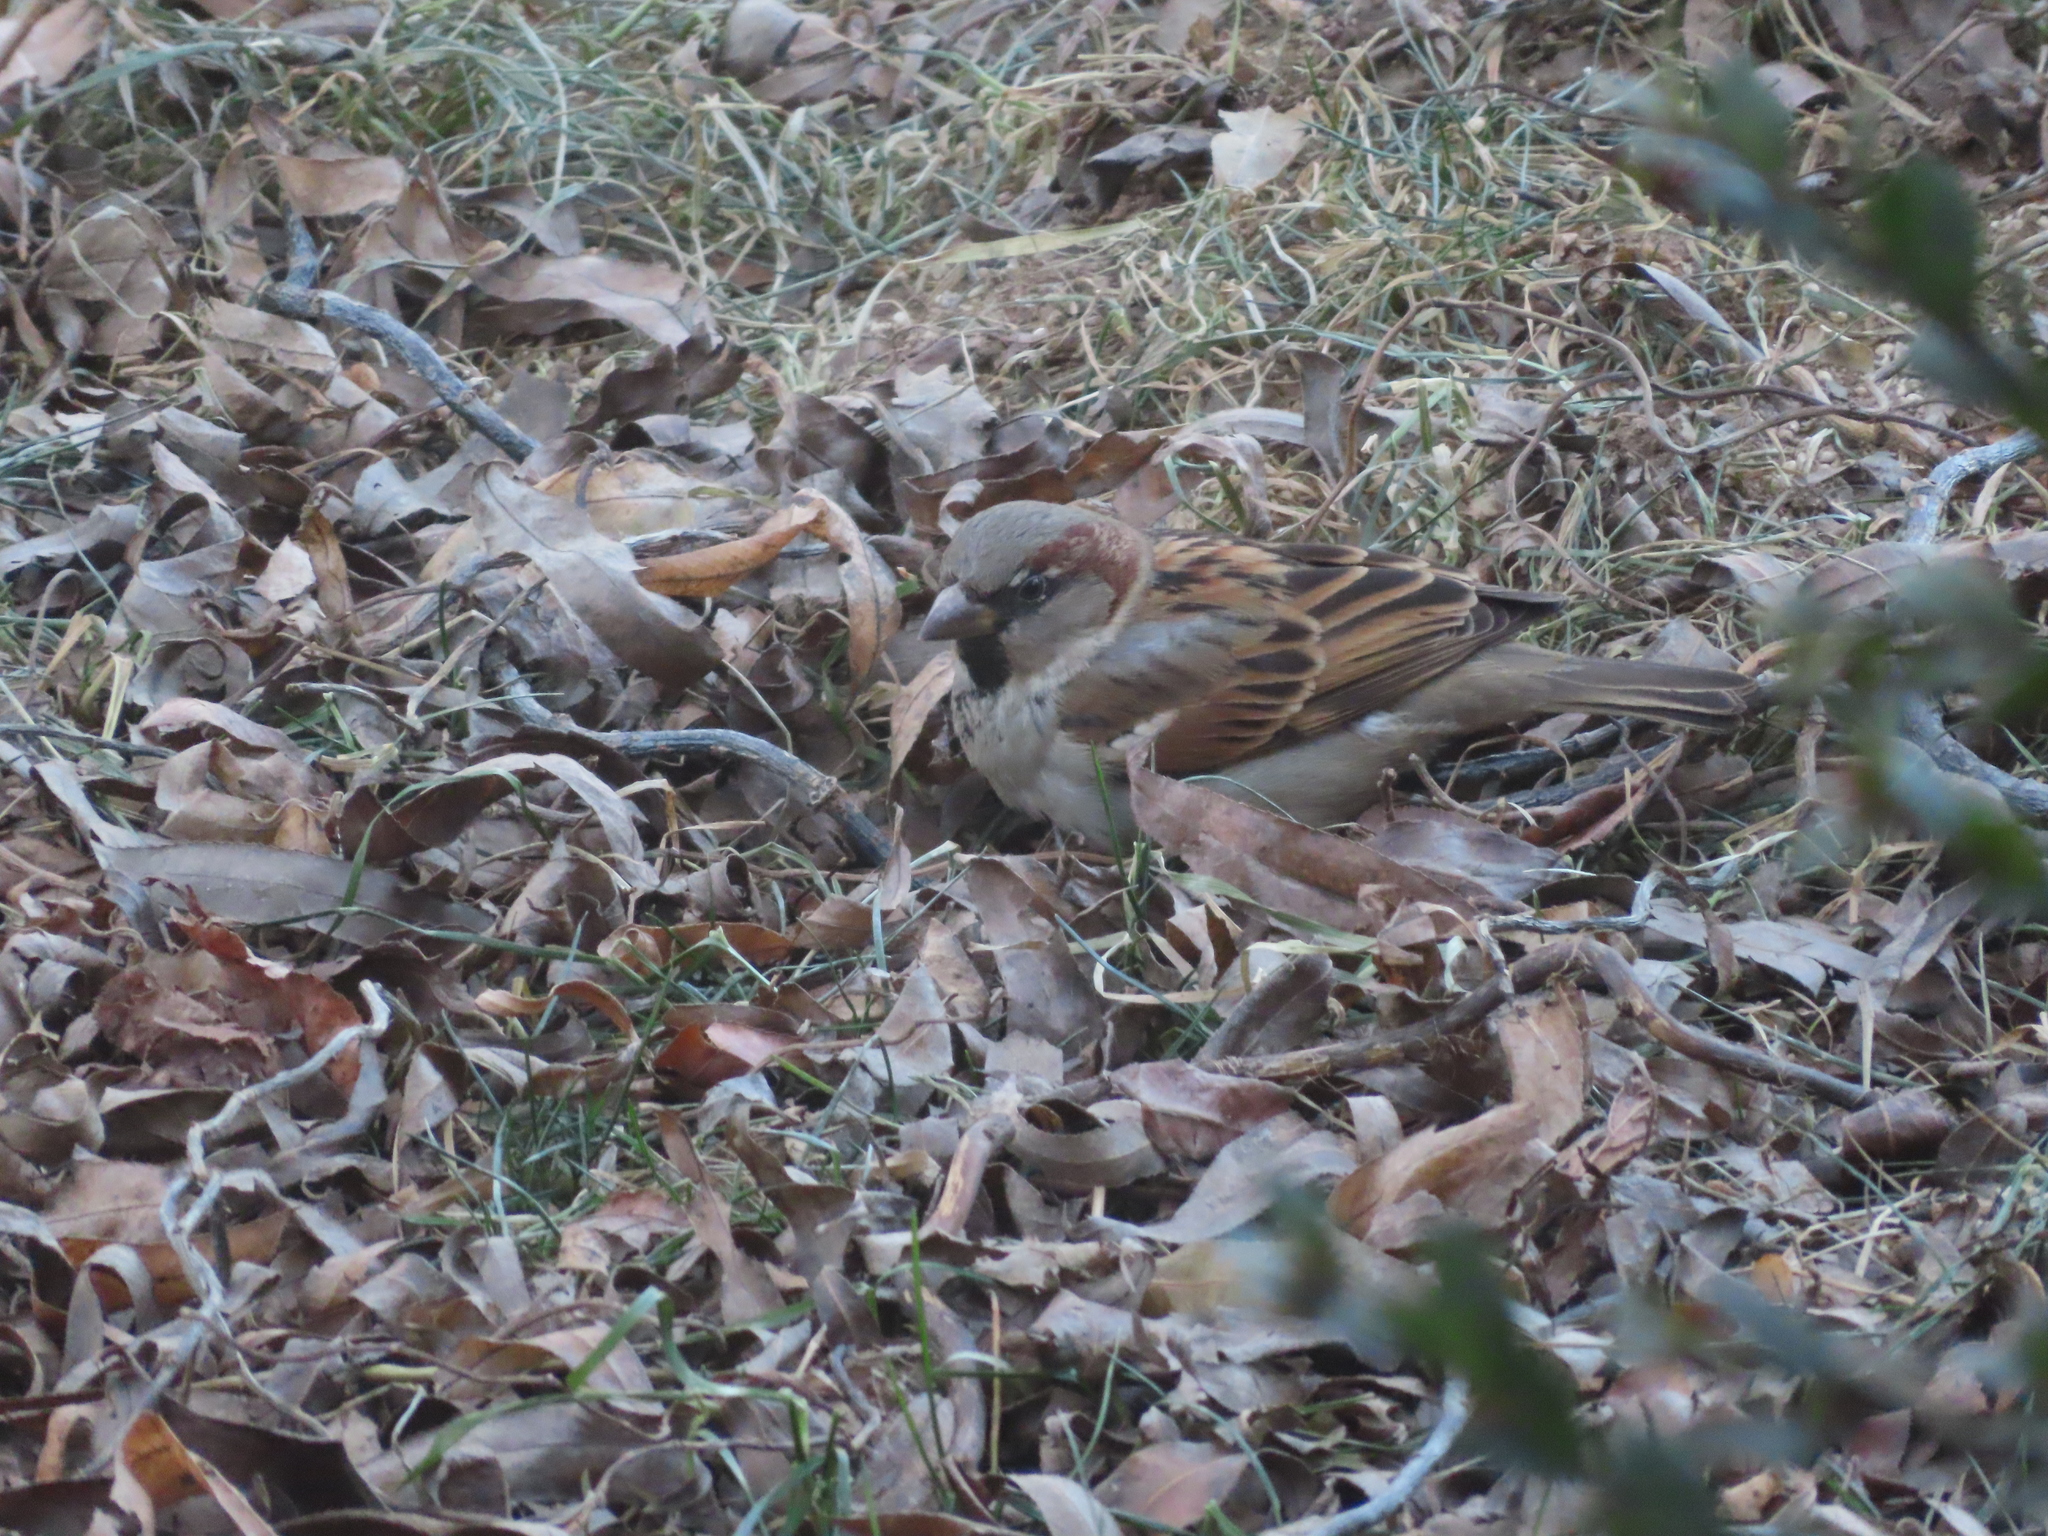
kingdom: Animalia
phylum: Chordata
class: Aves
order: Passeriformes
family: Passeridae
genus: Passer
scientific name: Passer domesticus
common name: House sparrow
